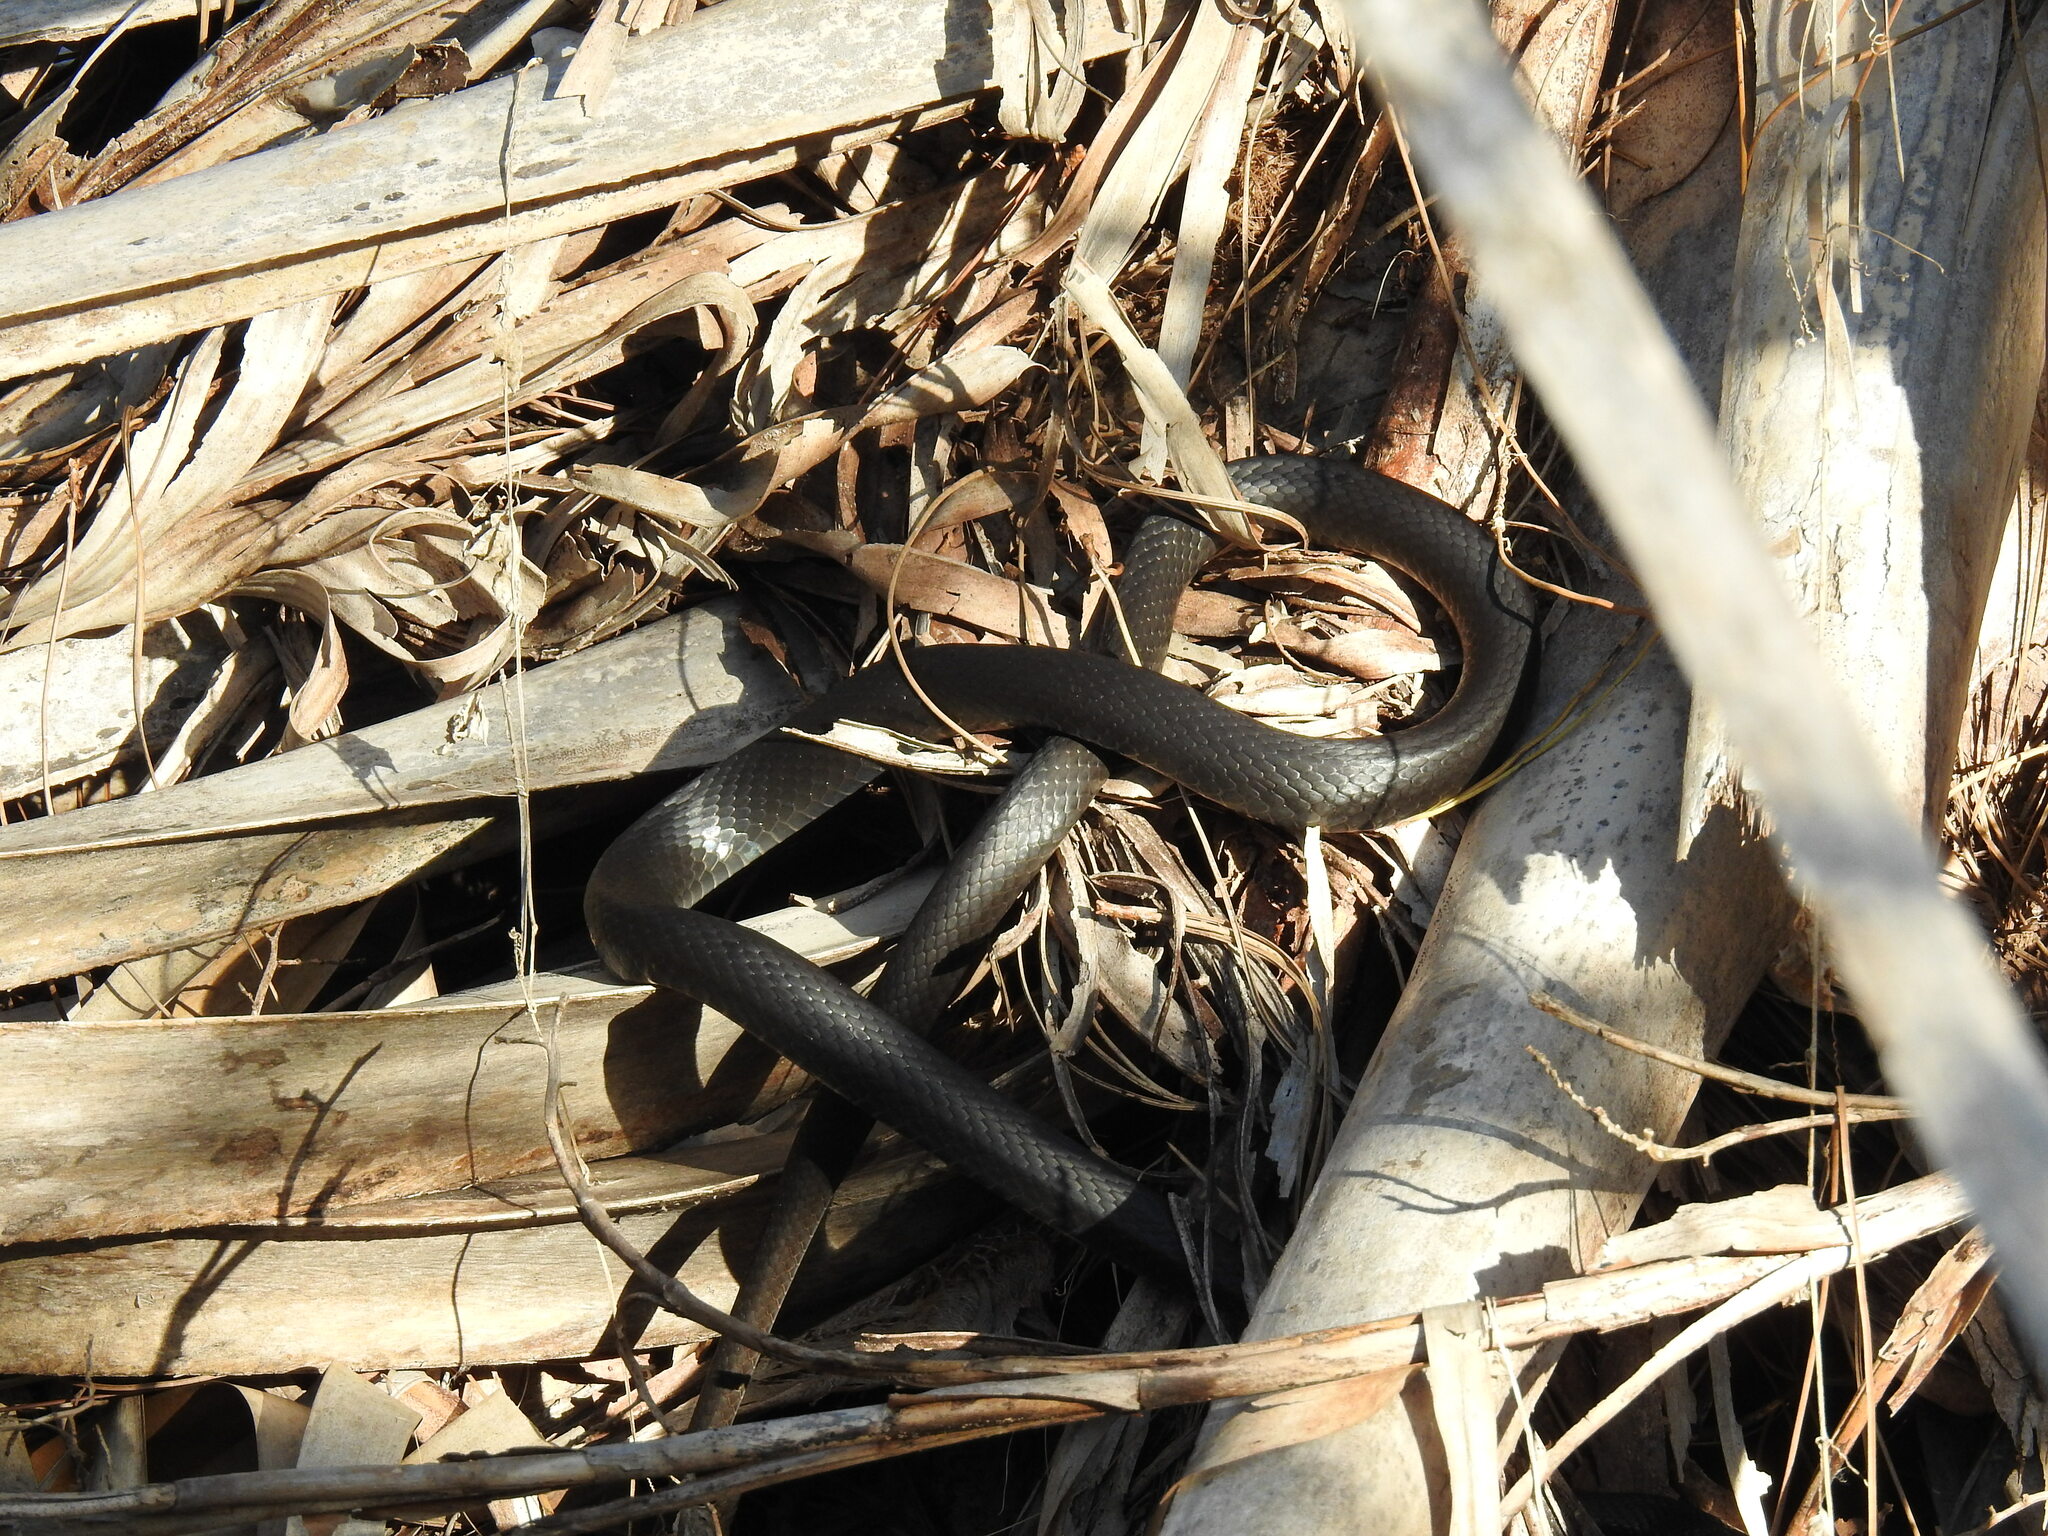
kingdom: Animalia
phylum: Chordata
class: Squamata
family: Colubridae
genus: Coluber
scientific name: Coluber constrictor
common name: Eastern racer
